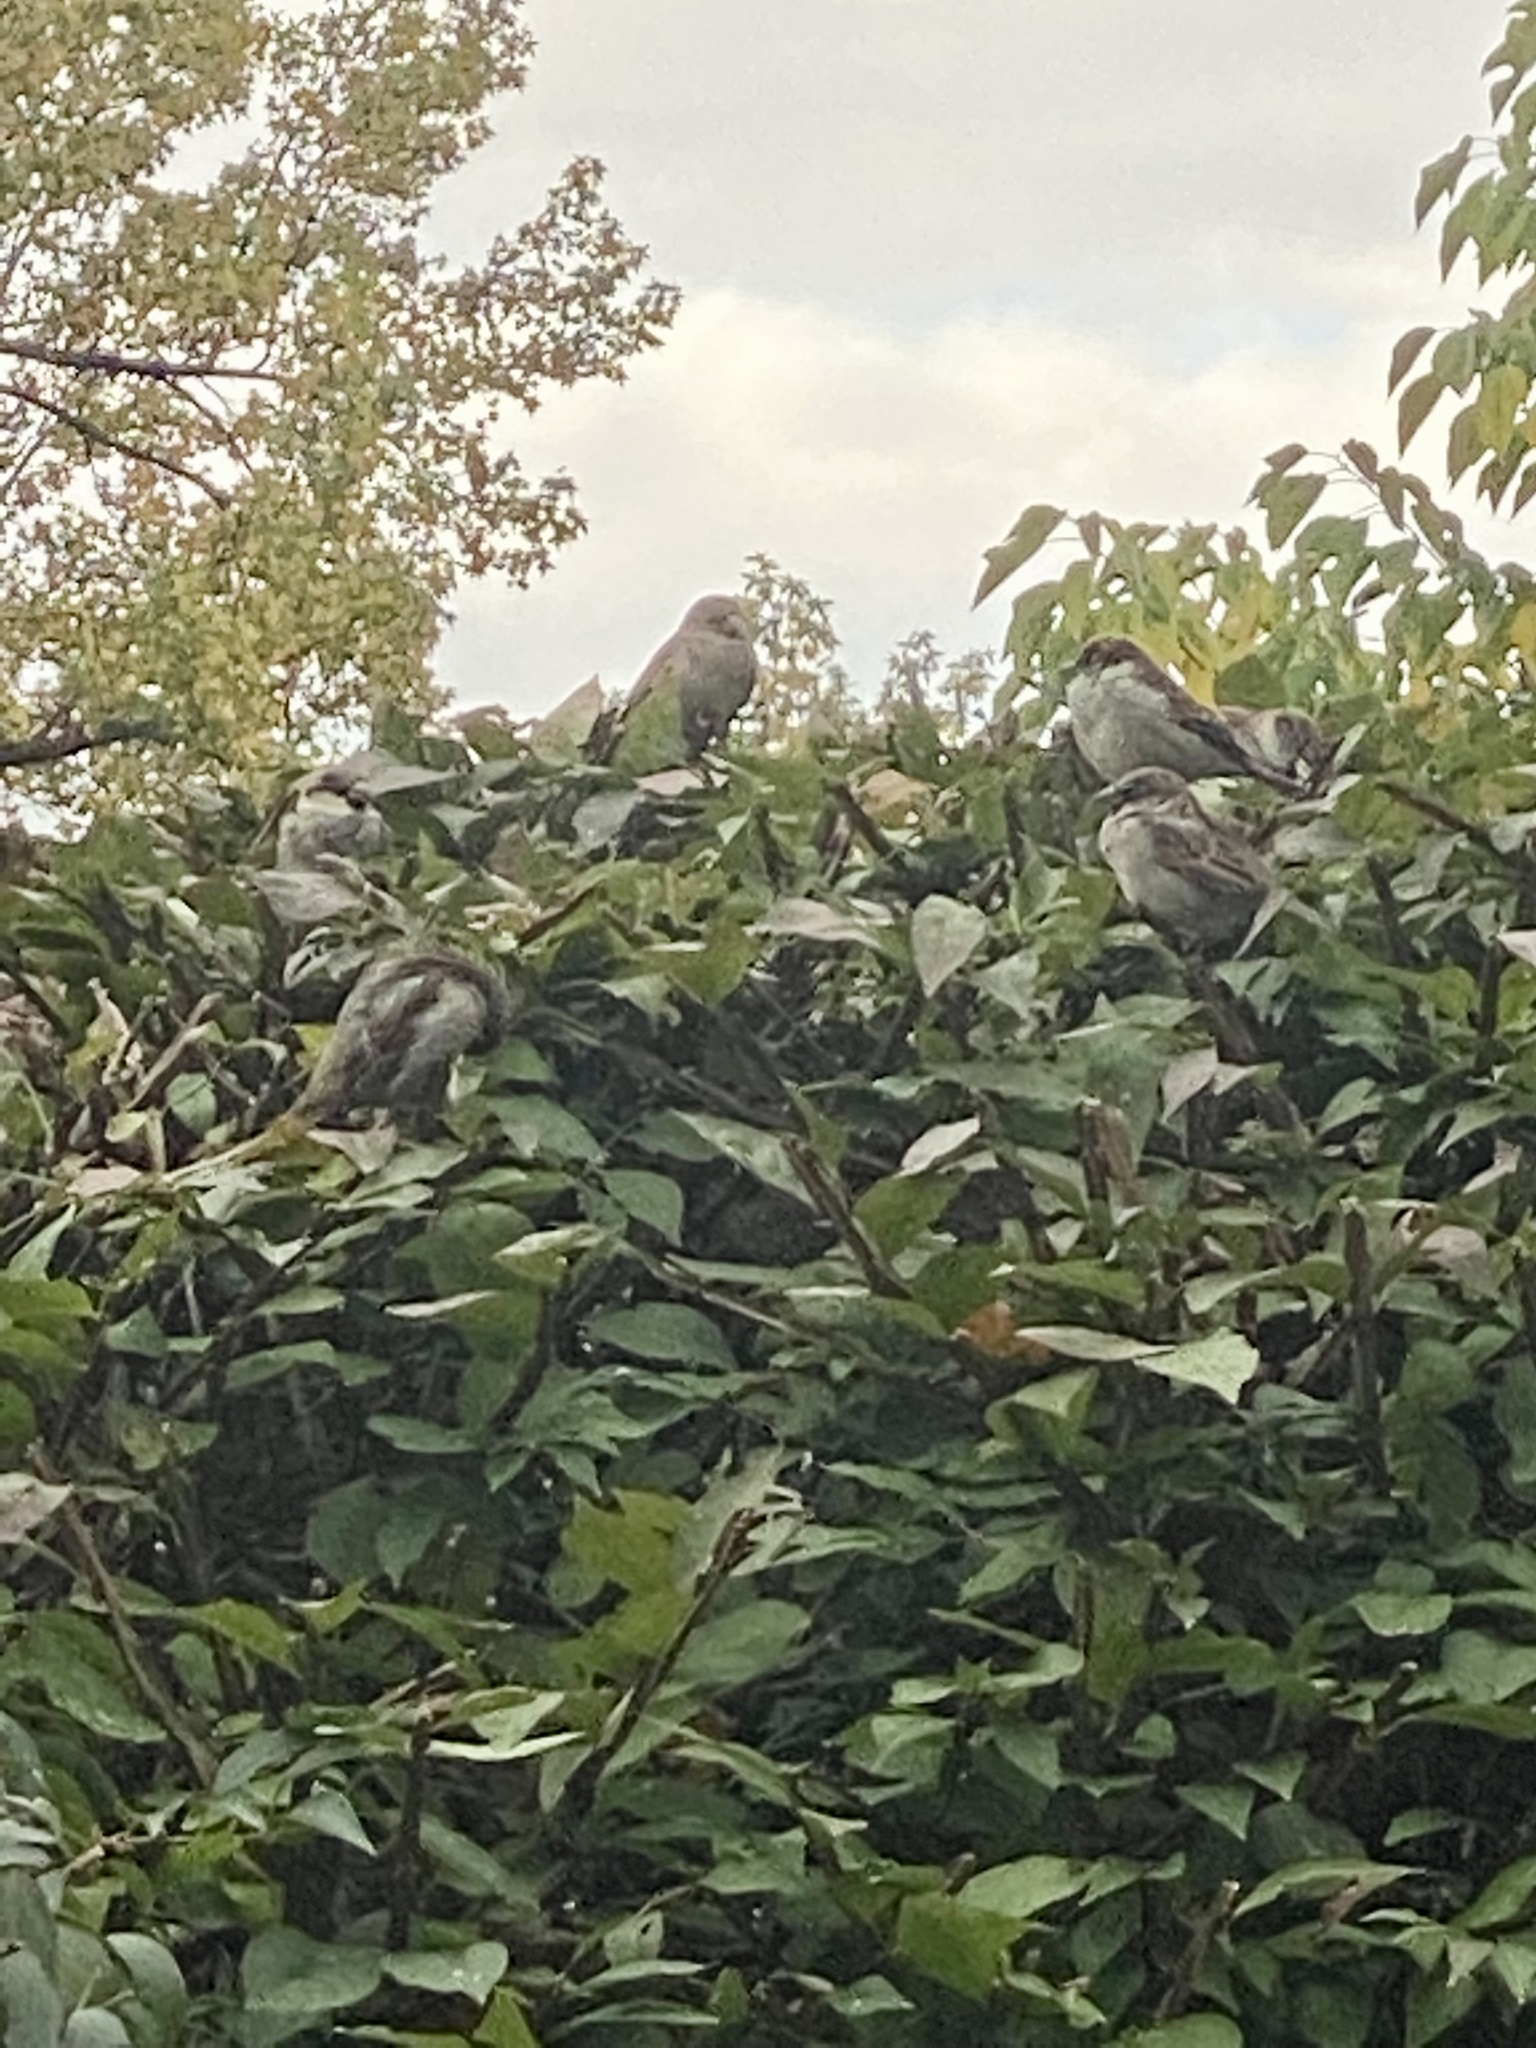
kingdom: Animalia
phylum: Chordata
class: Aves
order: Passeriformes
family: Passeridae
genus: Passer
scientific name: Passer domesticus
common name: House sparrow
